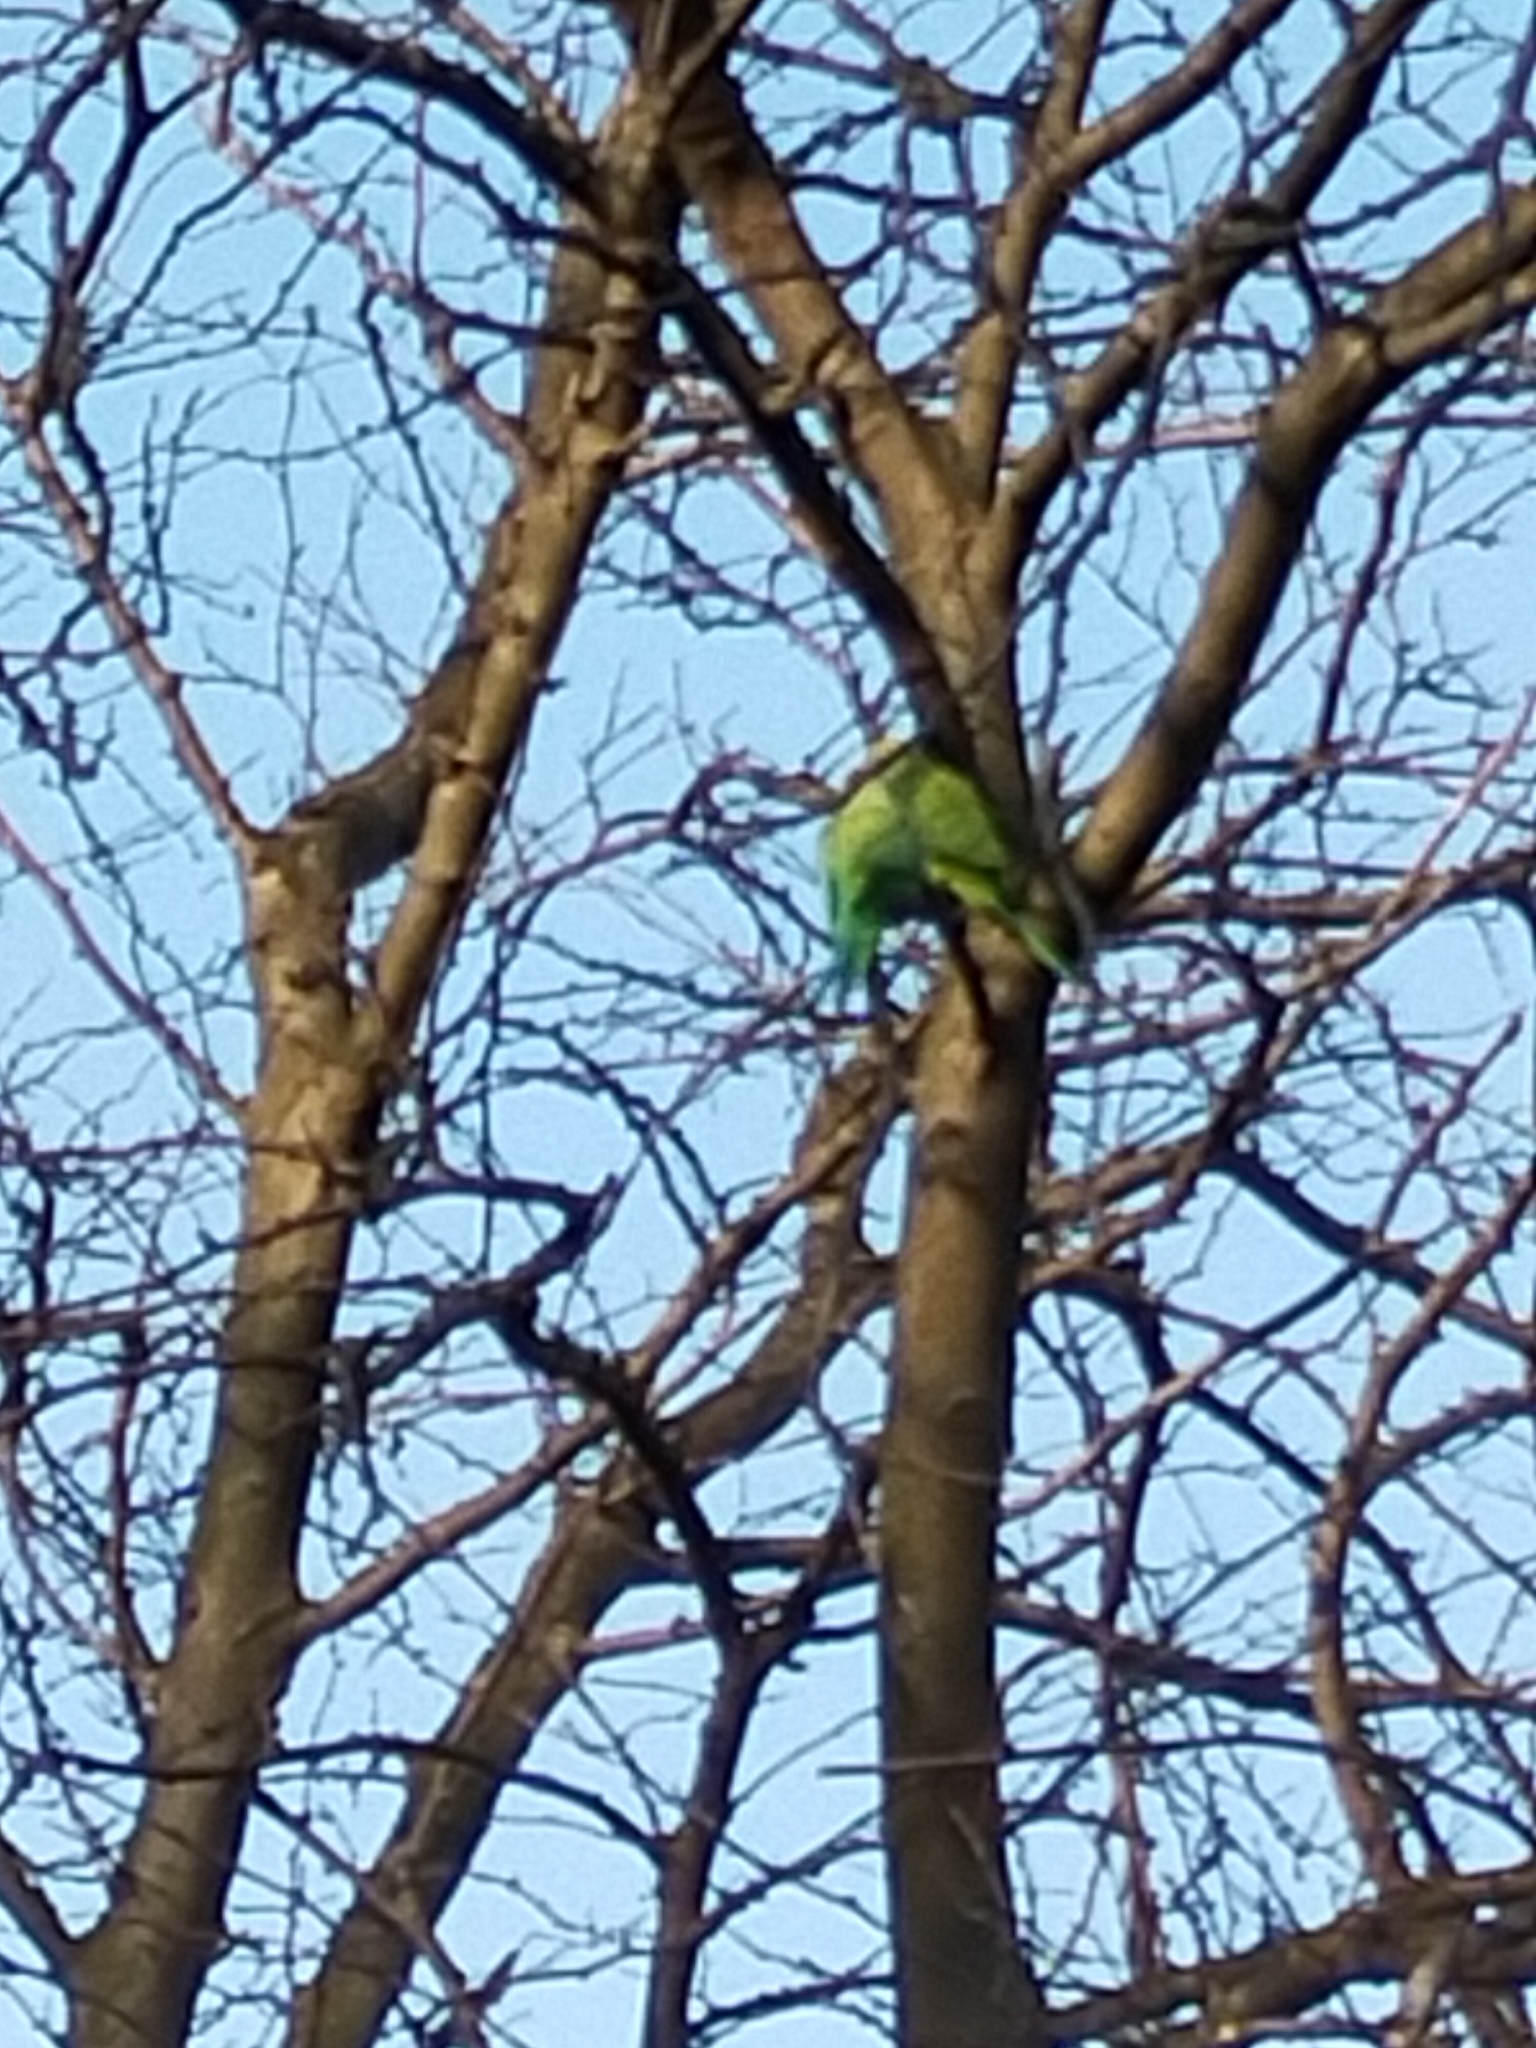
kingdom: Animalia
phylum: Chordata
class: Aves
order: Psittaciformes
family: Psittacidae
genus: Psittacula
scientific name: Psittacula krameri
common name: Rose-ringed parakeet
